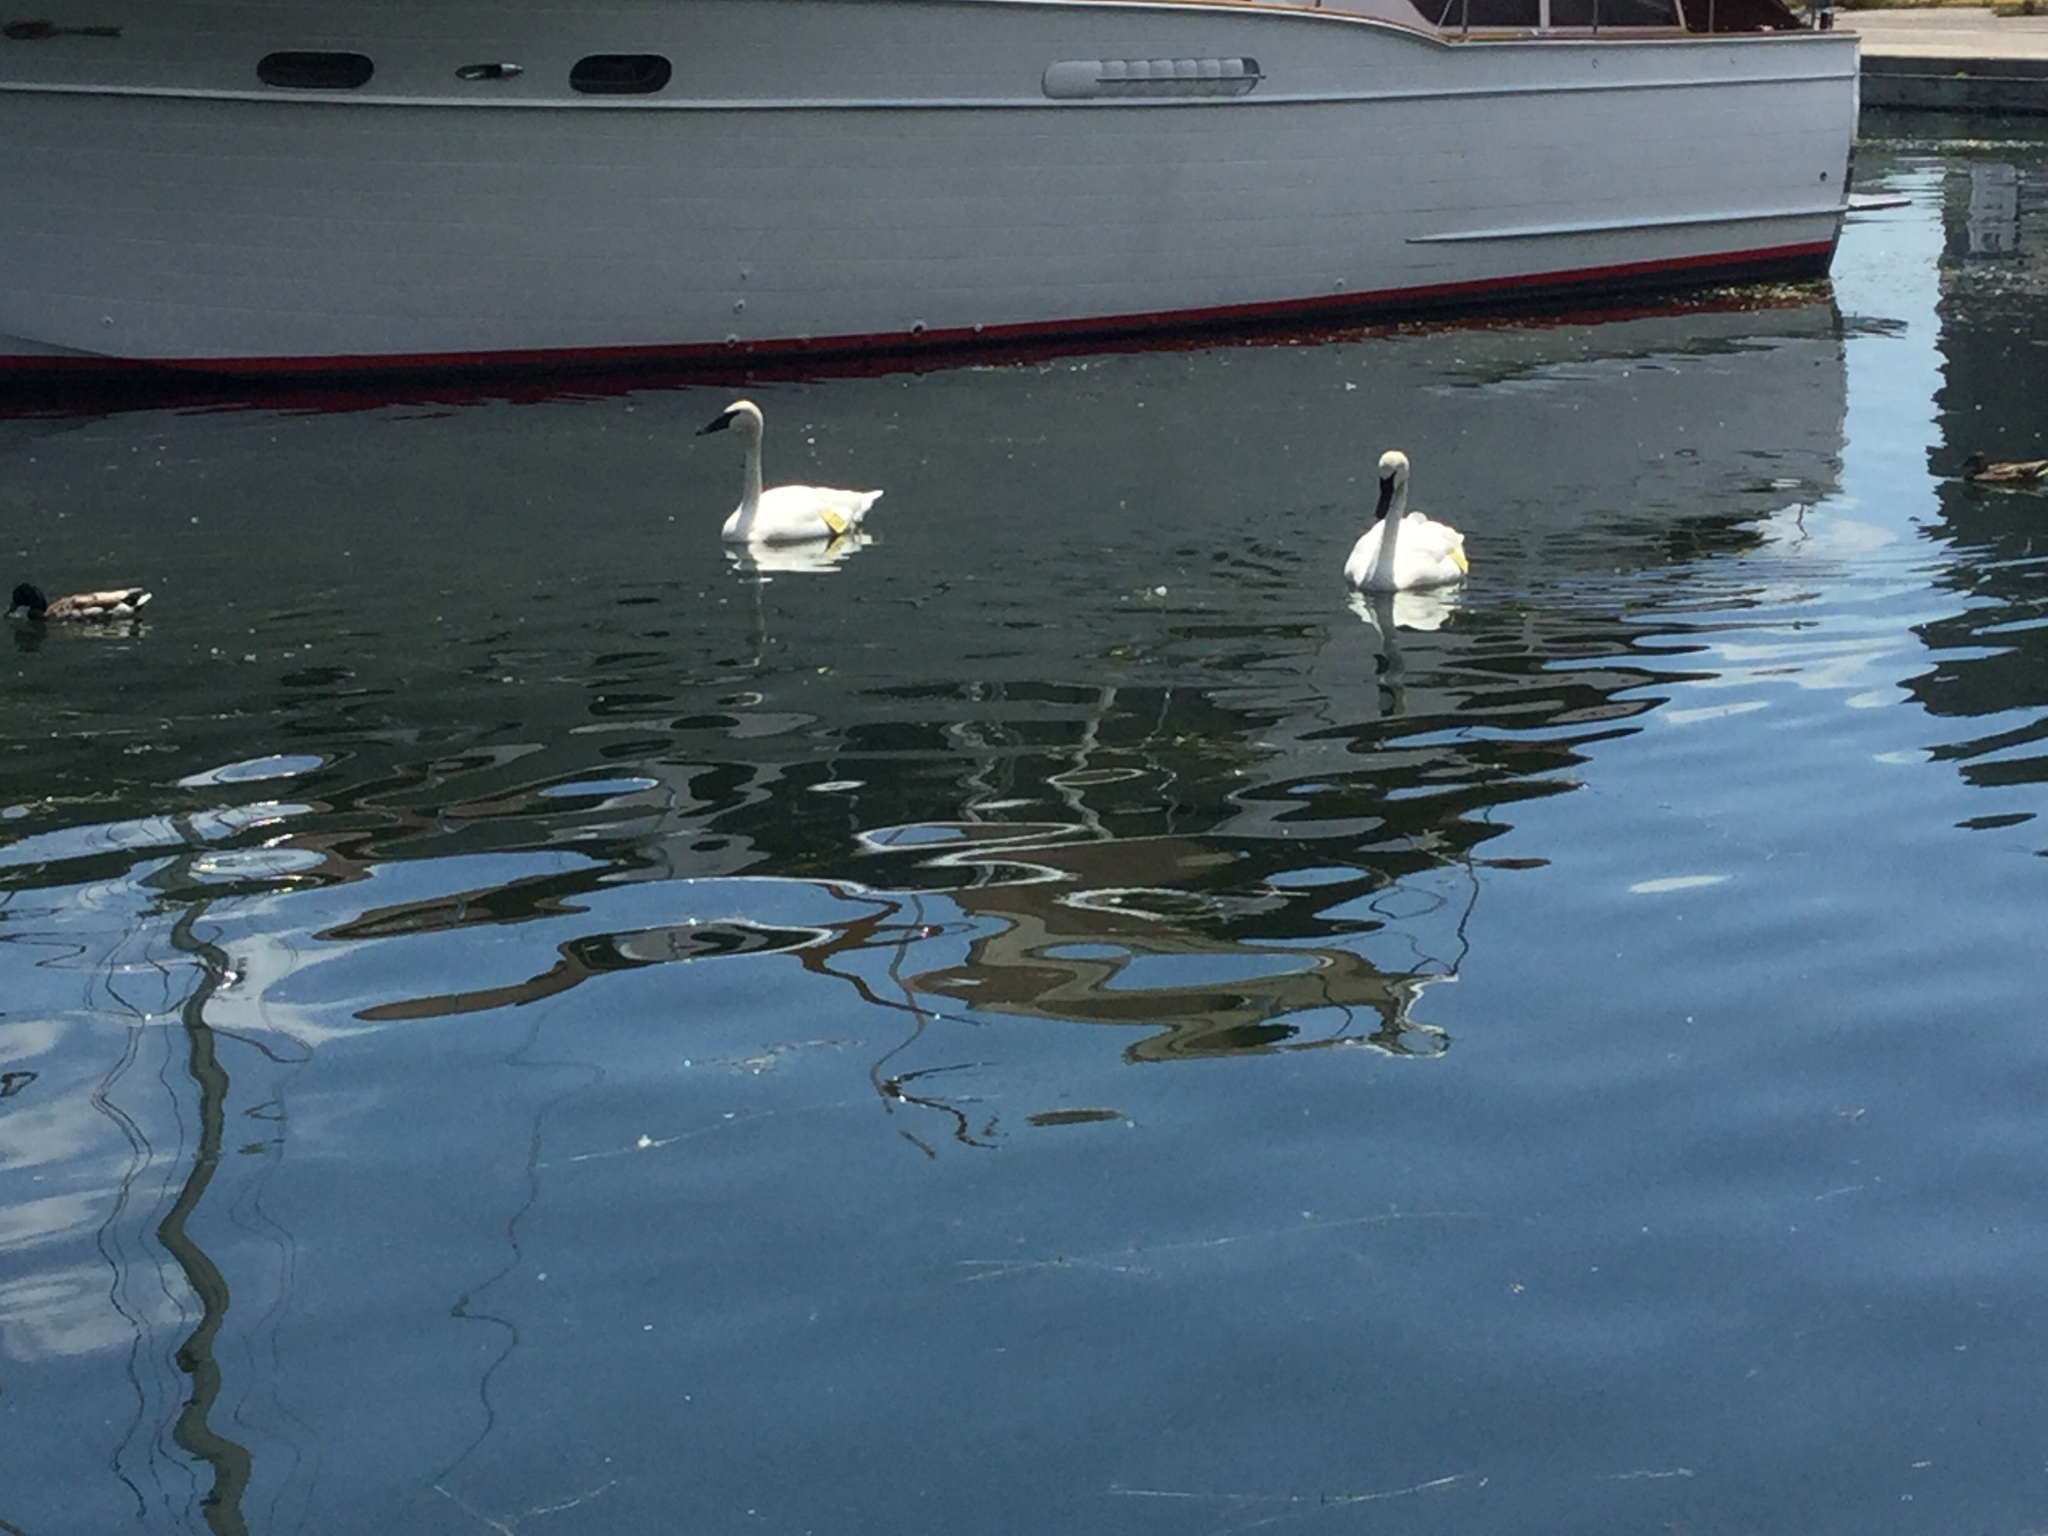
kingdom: Animalia
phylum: Chordata
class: Aves
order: Anseriformes
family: Anatidae
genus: Cygnus
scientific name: Cygnus buccinator
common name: Trumpeter swan
